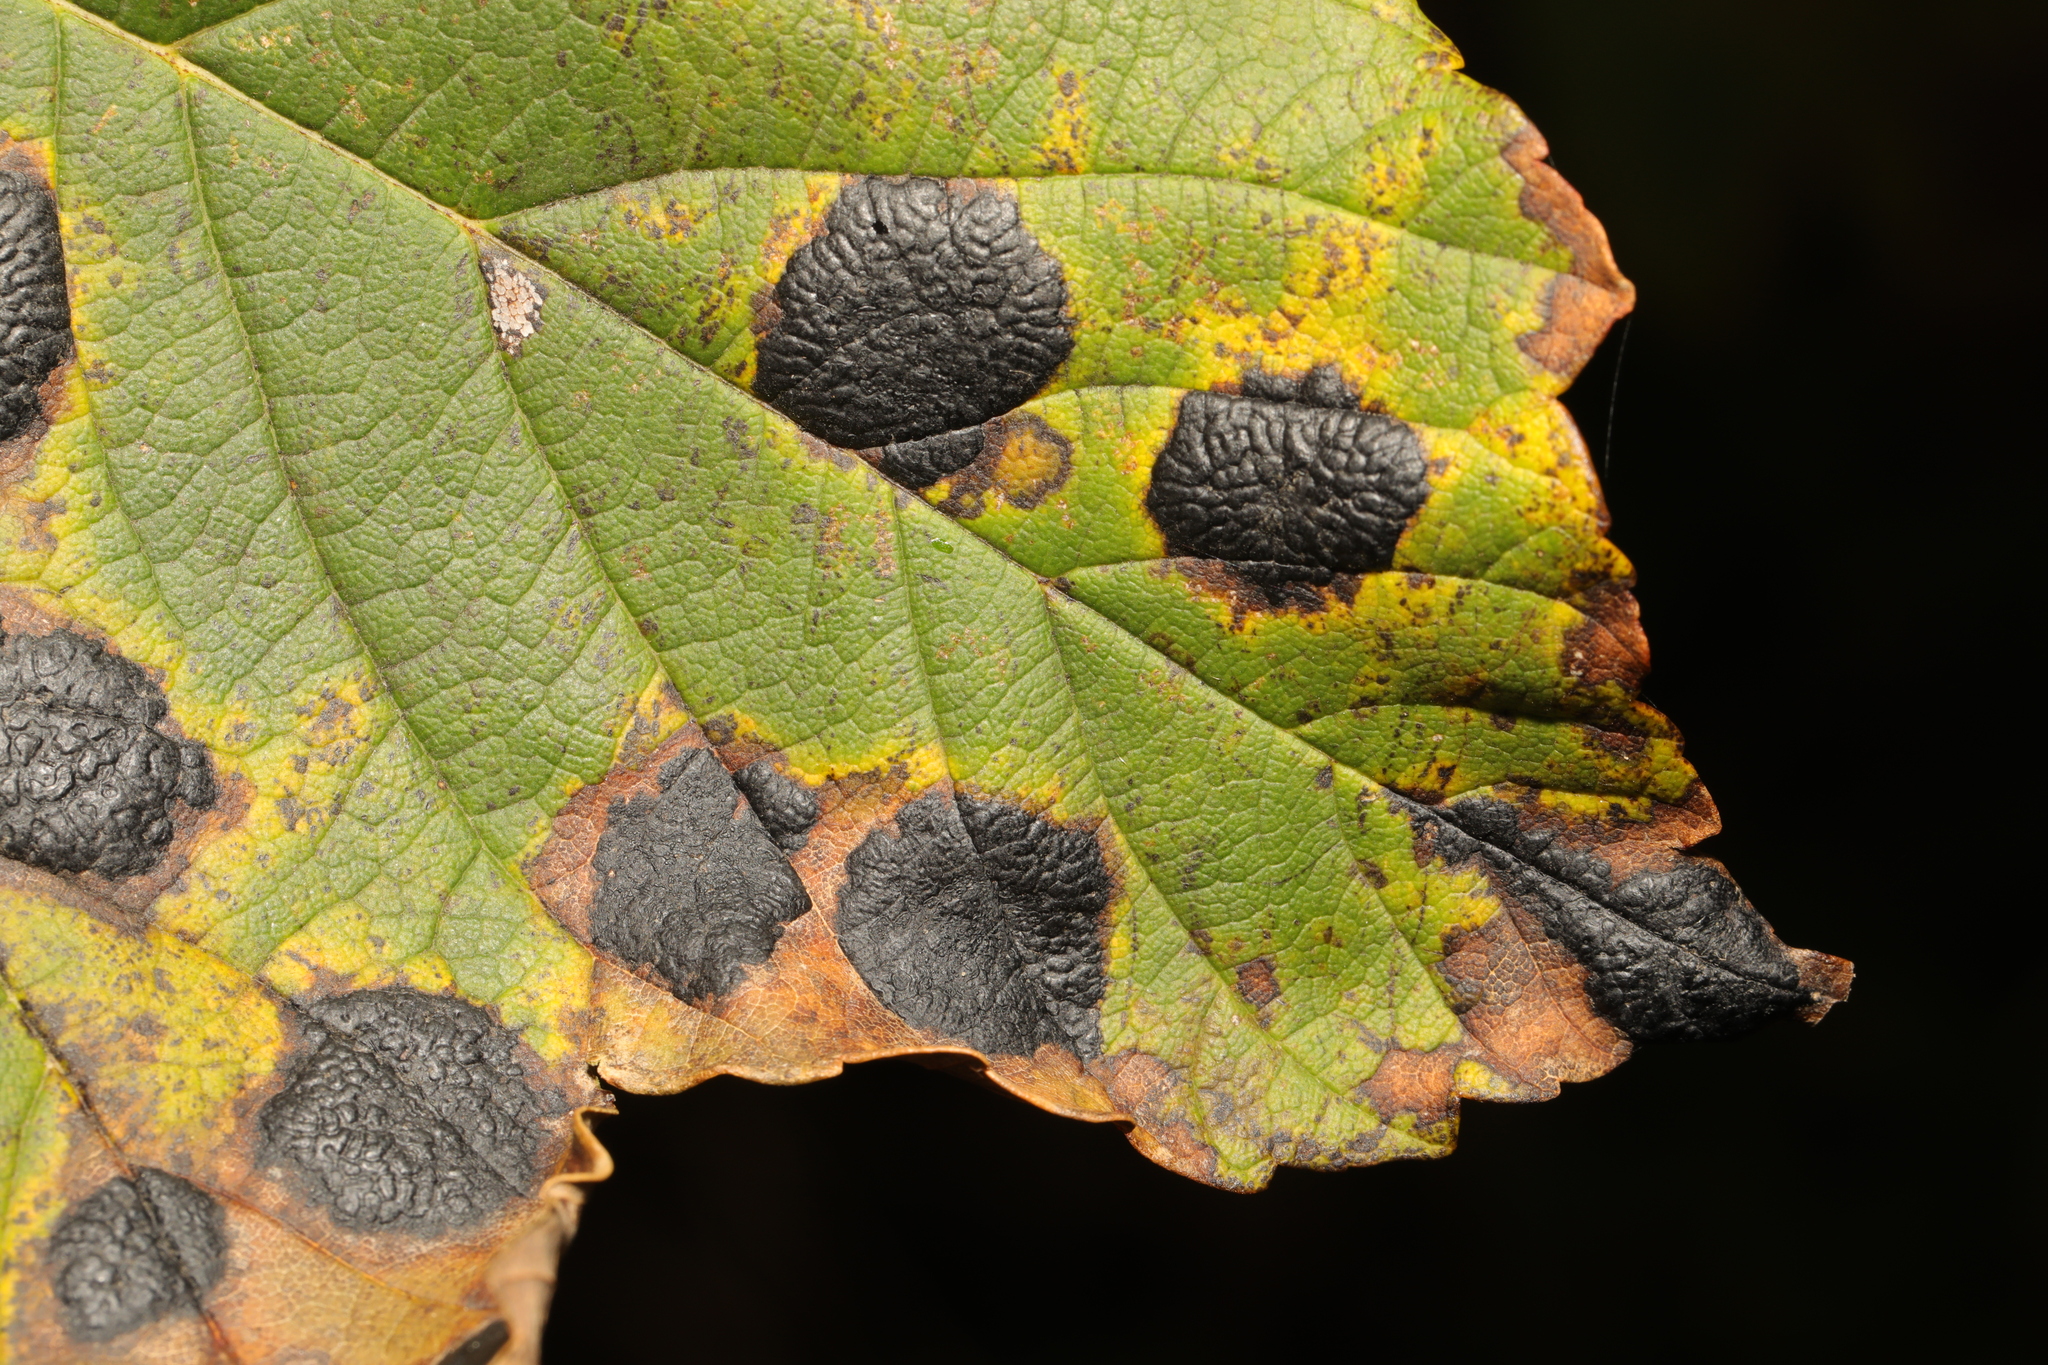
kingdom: Fungi
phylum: Ascomycota
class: Leotiomycetes
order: Rhytismatales
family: Rhytismataceae
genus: Rhytisma
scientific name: Rhytisma acerinum
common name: European tar spot
